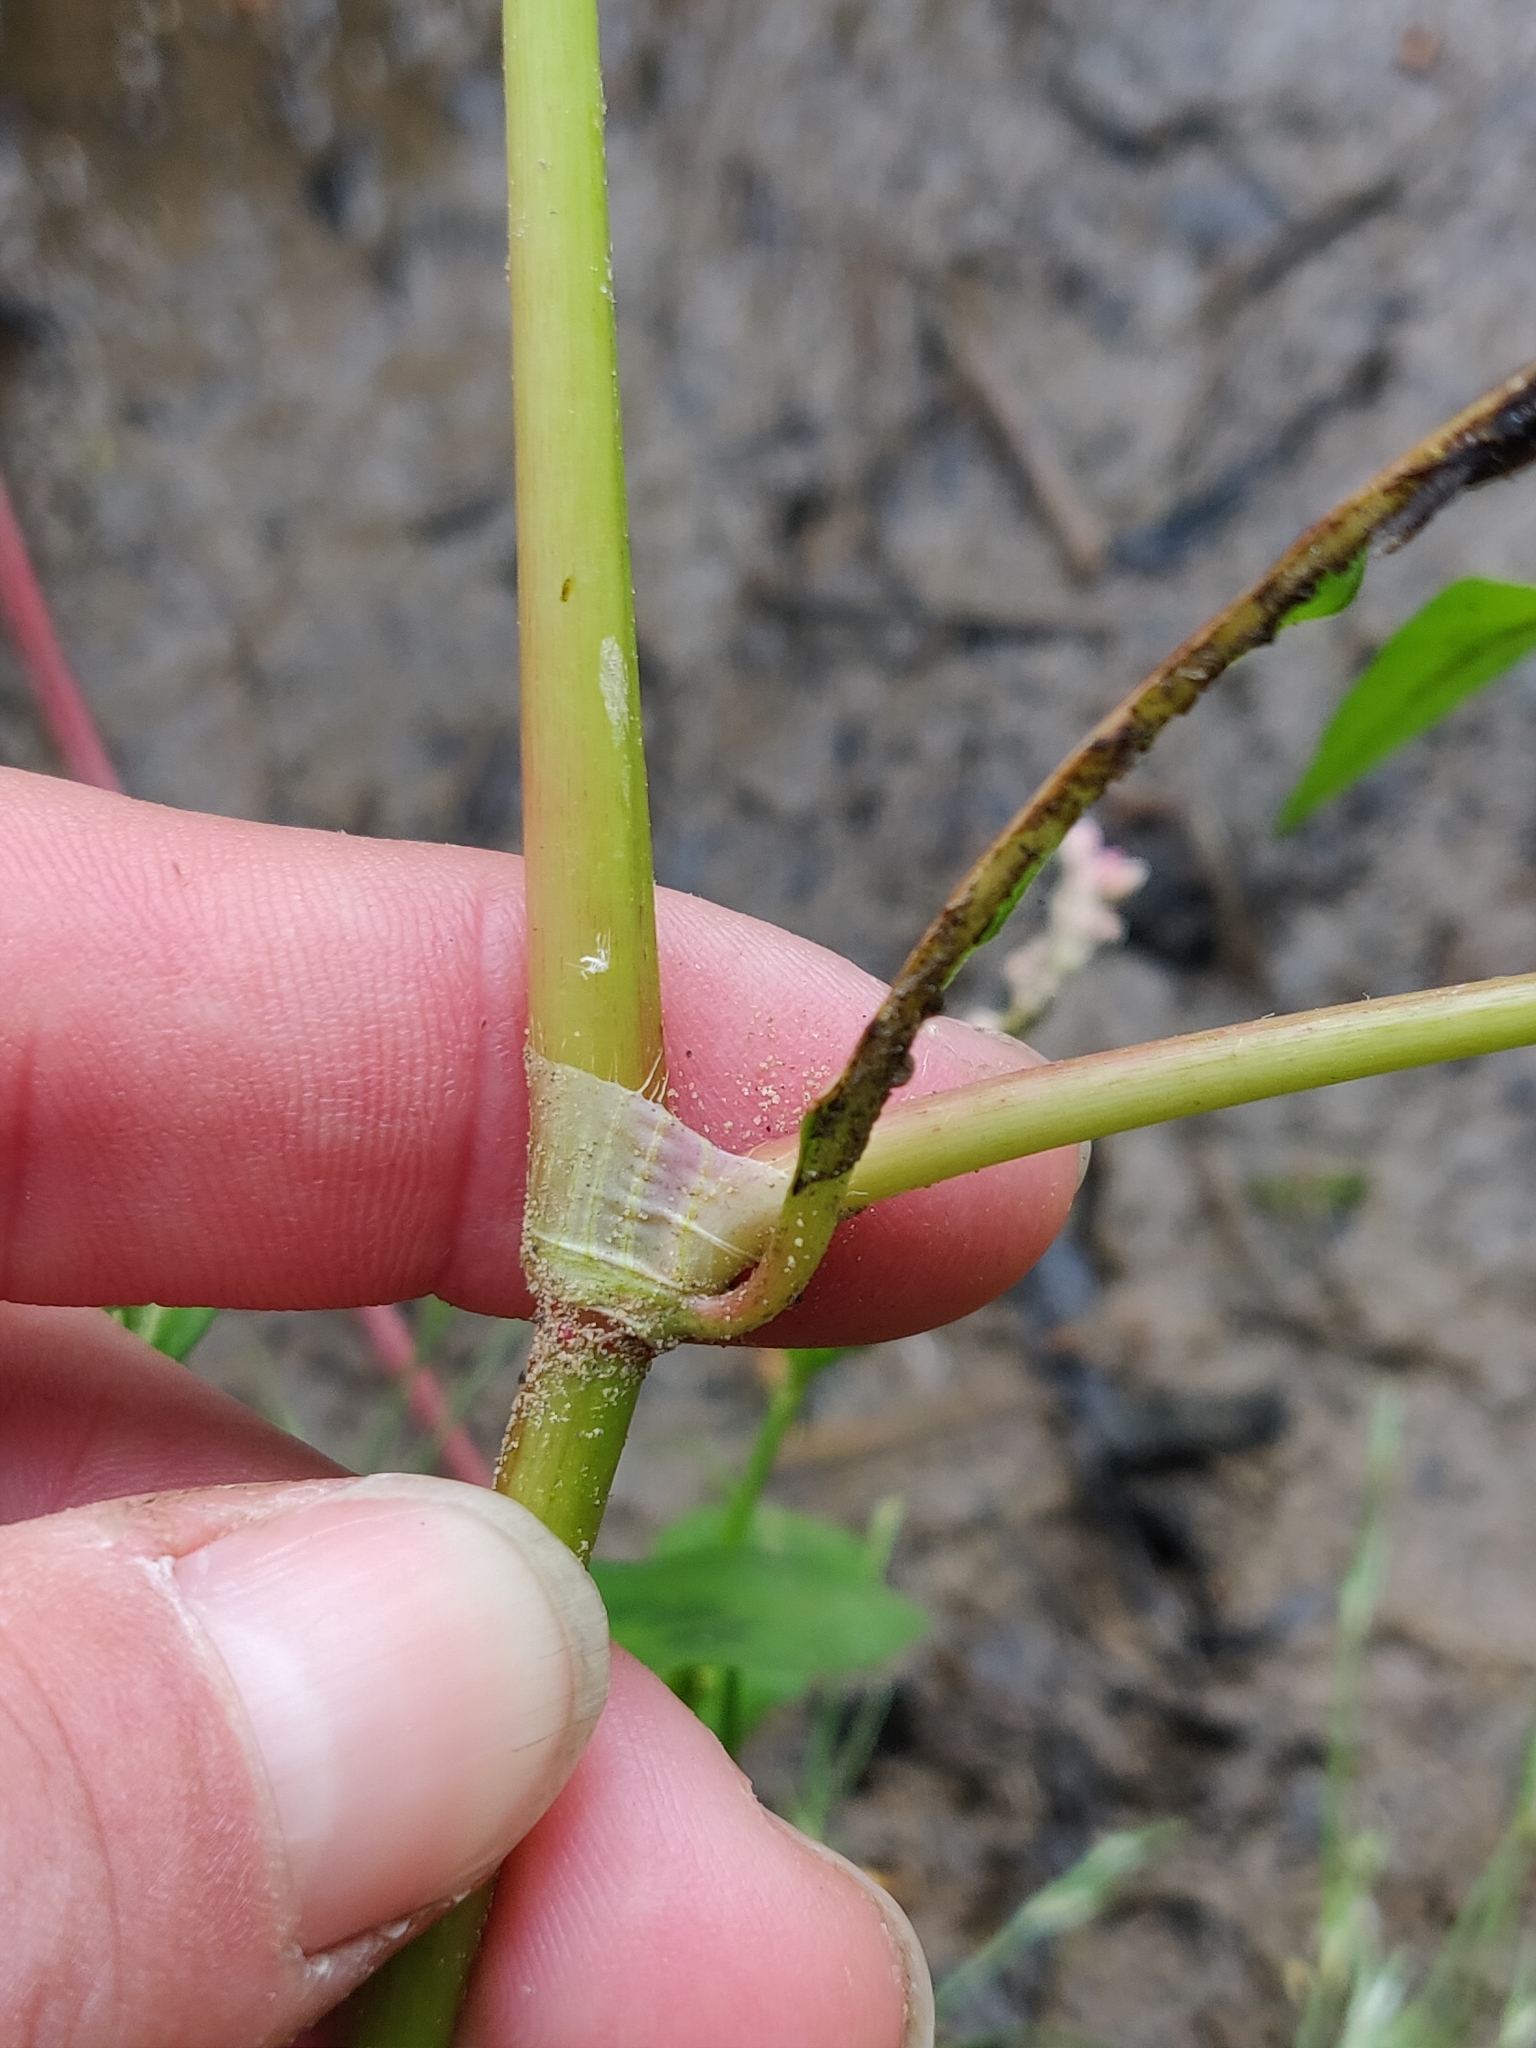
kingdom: Plantae
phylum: Tracheophyta
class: Magnoliopsida
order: Caryophyllales
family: Polygonaceae
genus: Persicaria
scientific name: Persicaria maculosa
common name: Redshank
